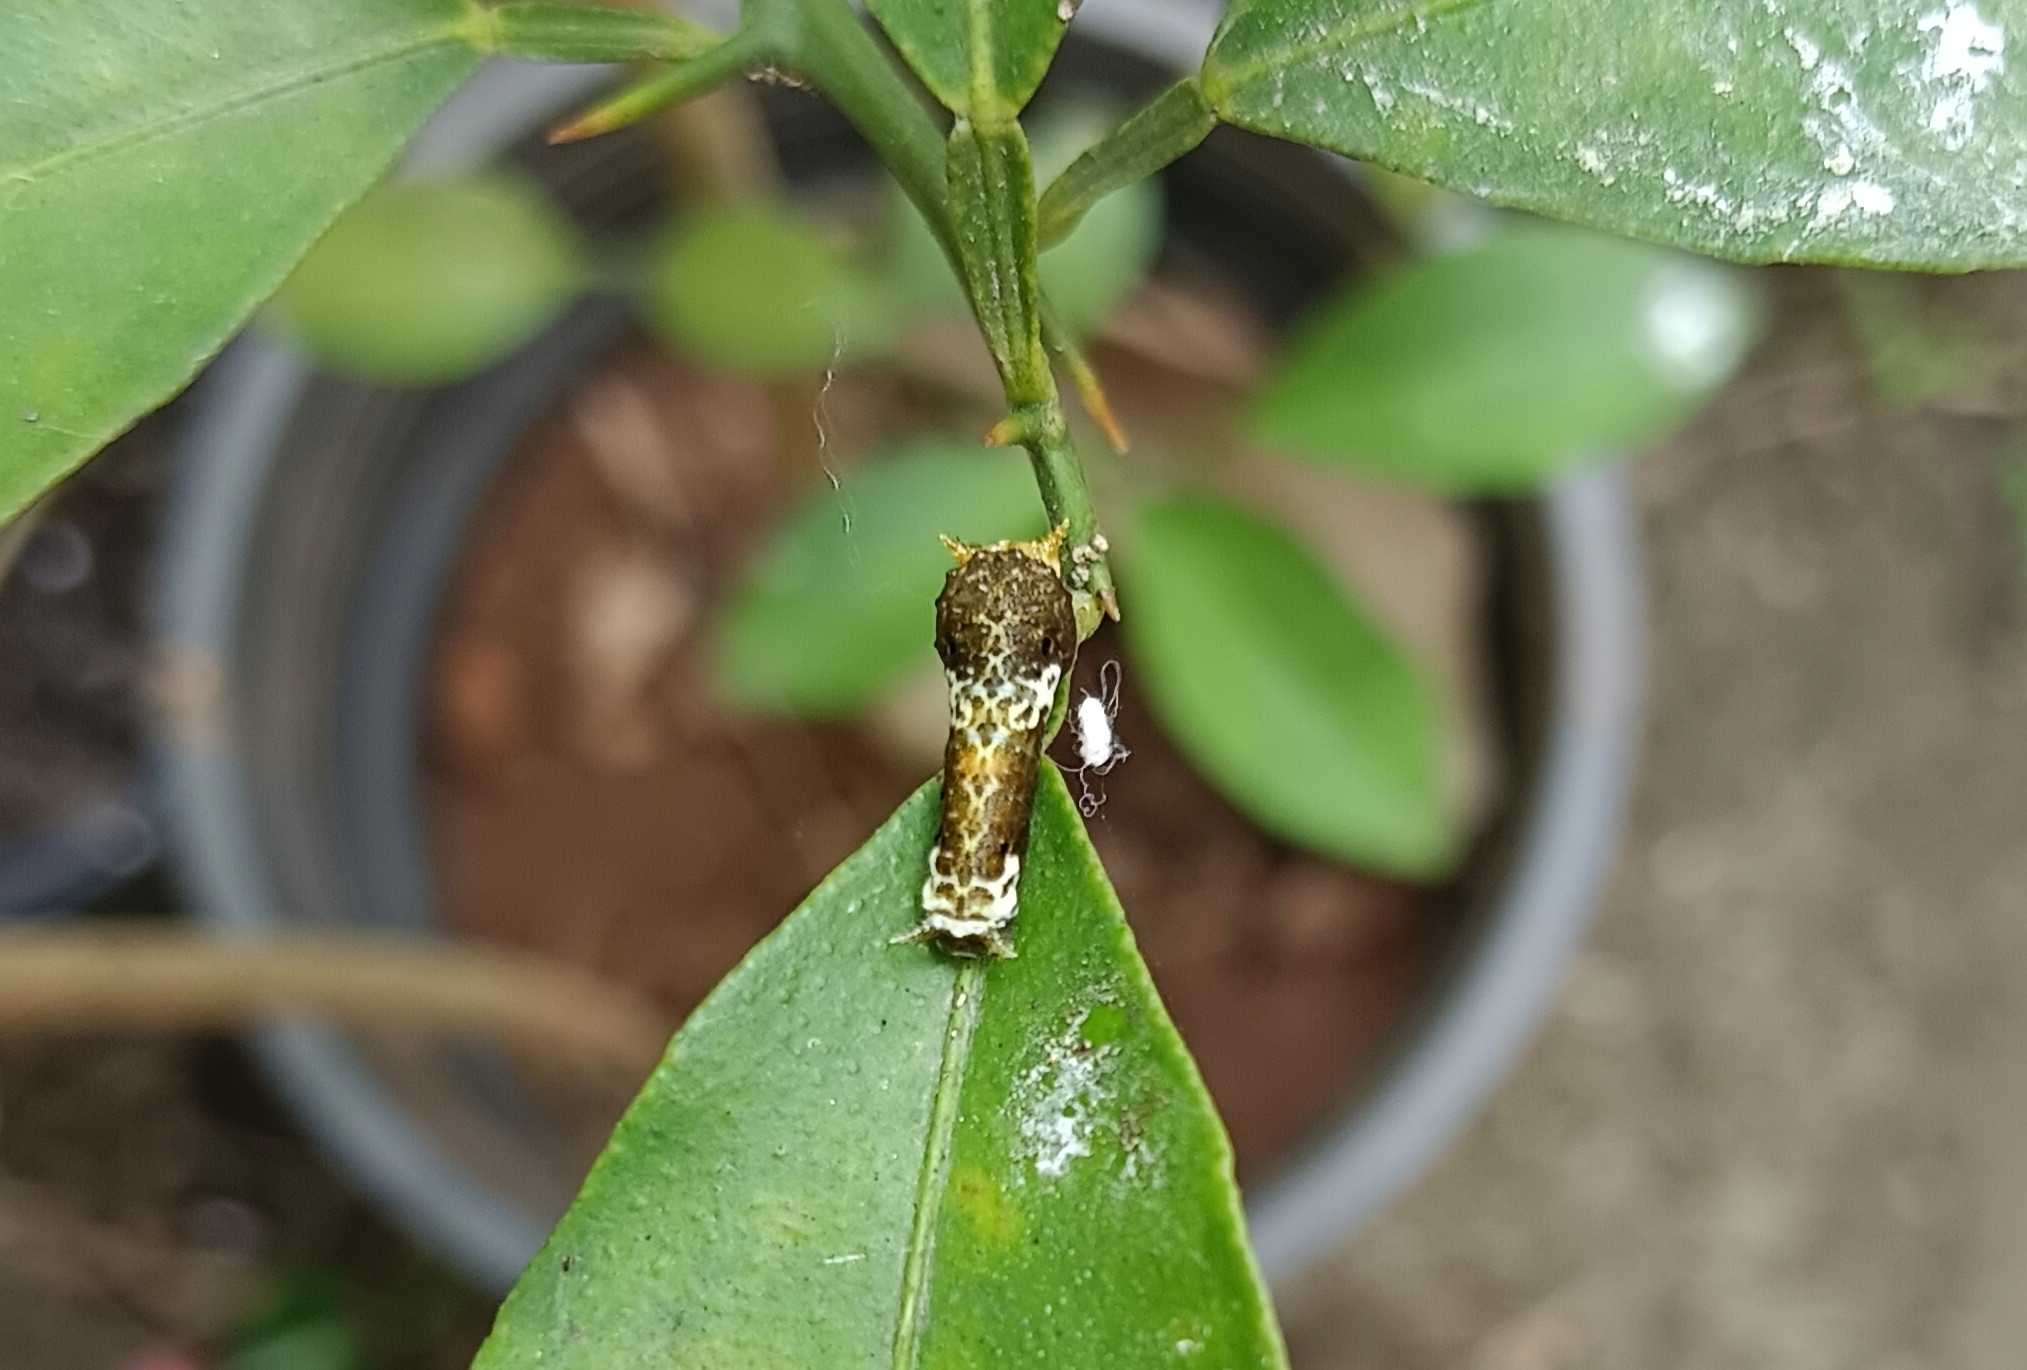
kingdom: Animalia
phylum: Arthropoda
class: Insecta
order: Lepidoptera
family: Papilionidae
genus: Papilio
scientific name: Papilio polytes
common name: Common mormon
